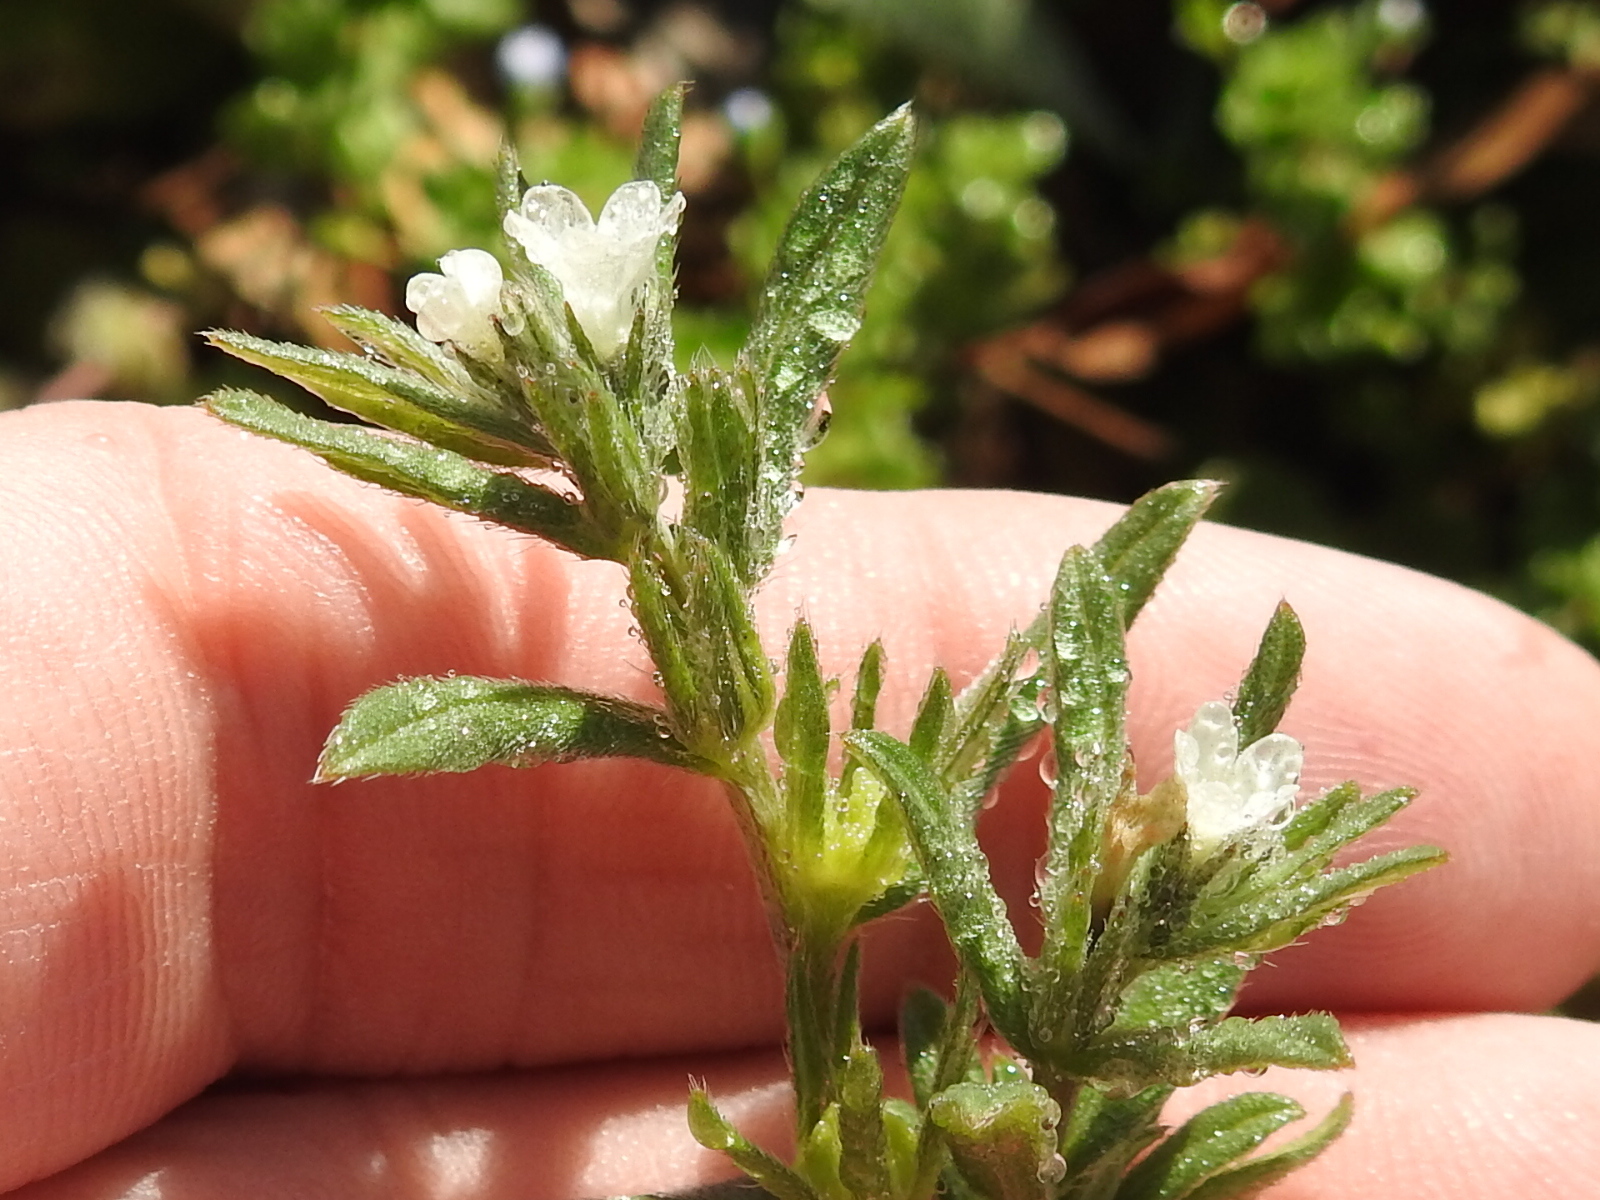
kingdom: Plantae
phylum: Tracheophyta
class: Magnoliopsida
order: Boraginales
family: Boraginaceae
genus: Buglossoides
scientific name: Buglossoides arvensis
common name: Corn gromwell
